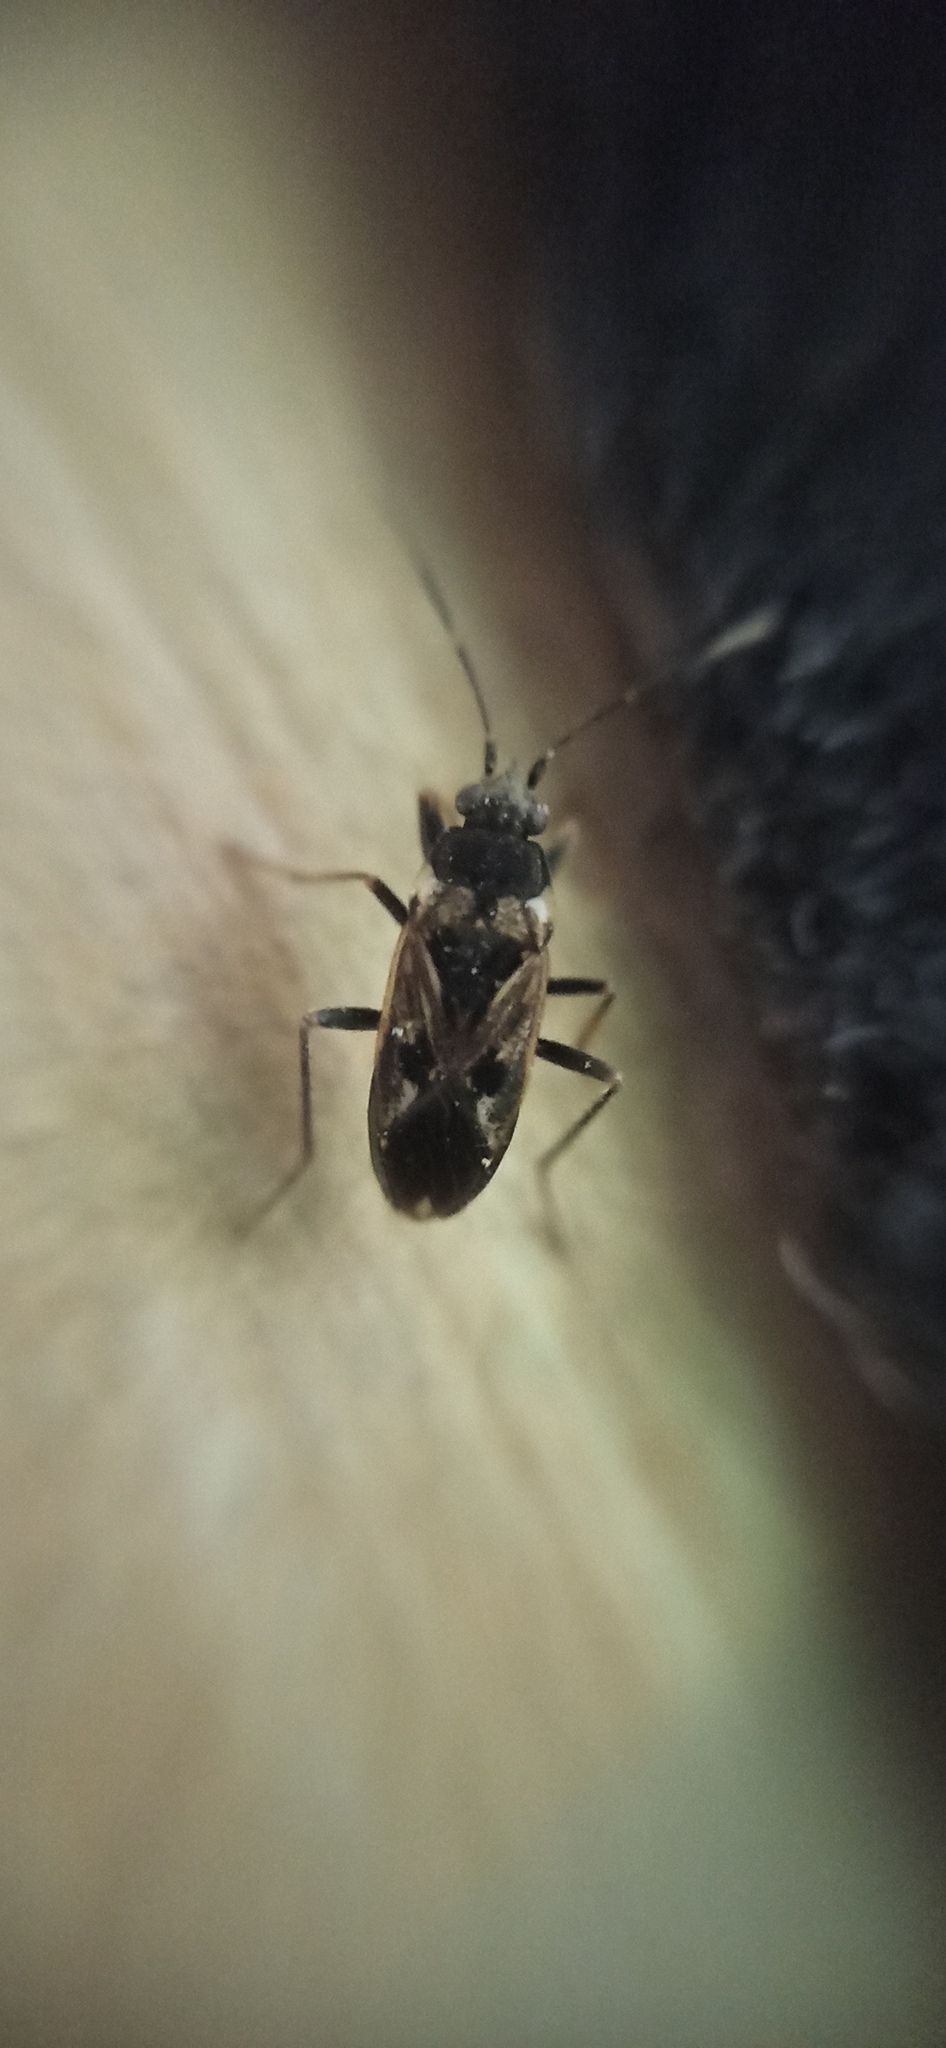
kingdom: Animalia
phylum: Arthropoda
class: Insecta
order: Hemiptera
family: Rhyparochromidae
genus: Rhyparochromus
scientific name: Rhyparochromus vulgaris
